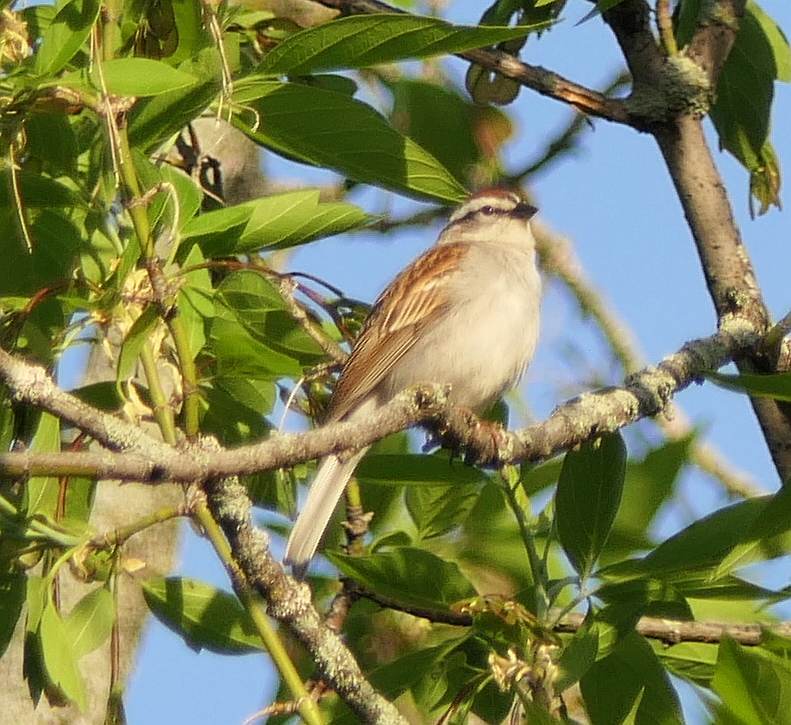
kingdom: Animalia
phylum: Chordata
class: Aves
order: Passeriformes
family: Passerellidae
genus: Spizella
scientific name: Spizella passerina
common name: Chipping sparrow
